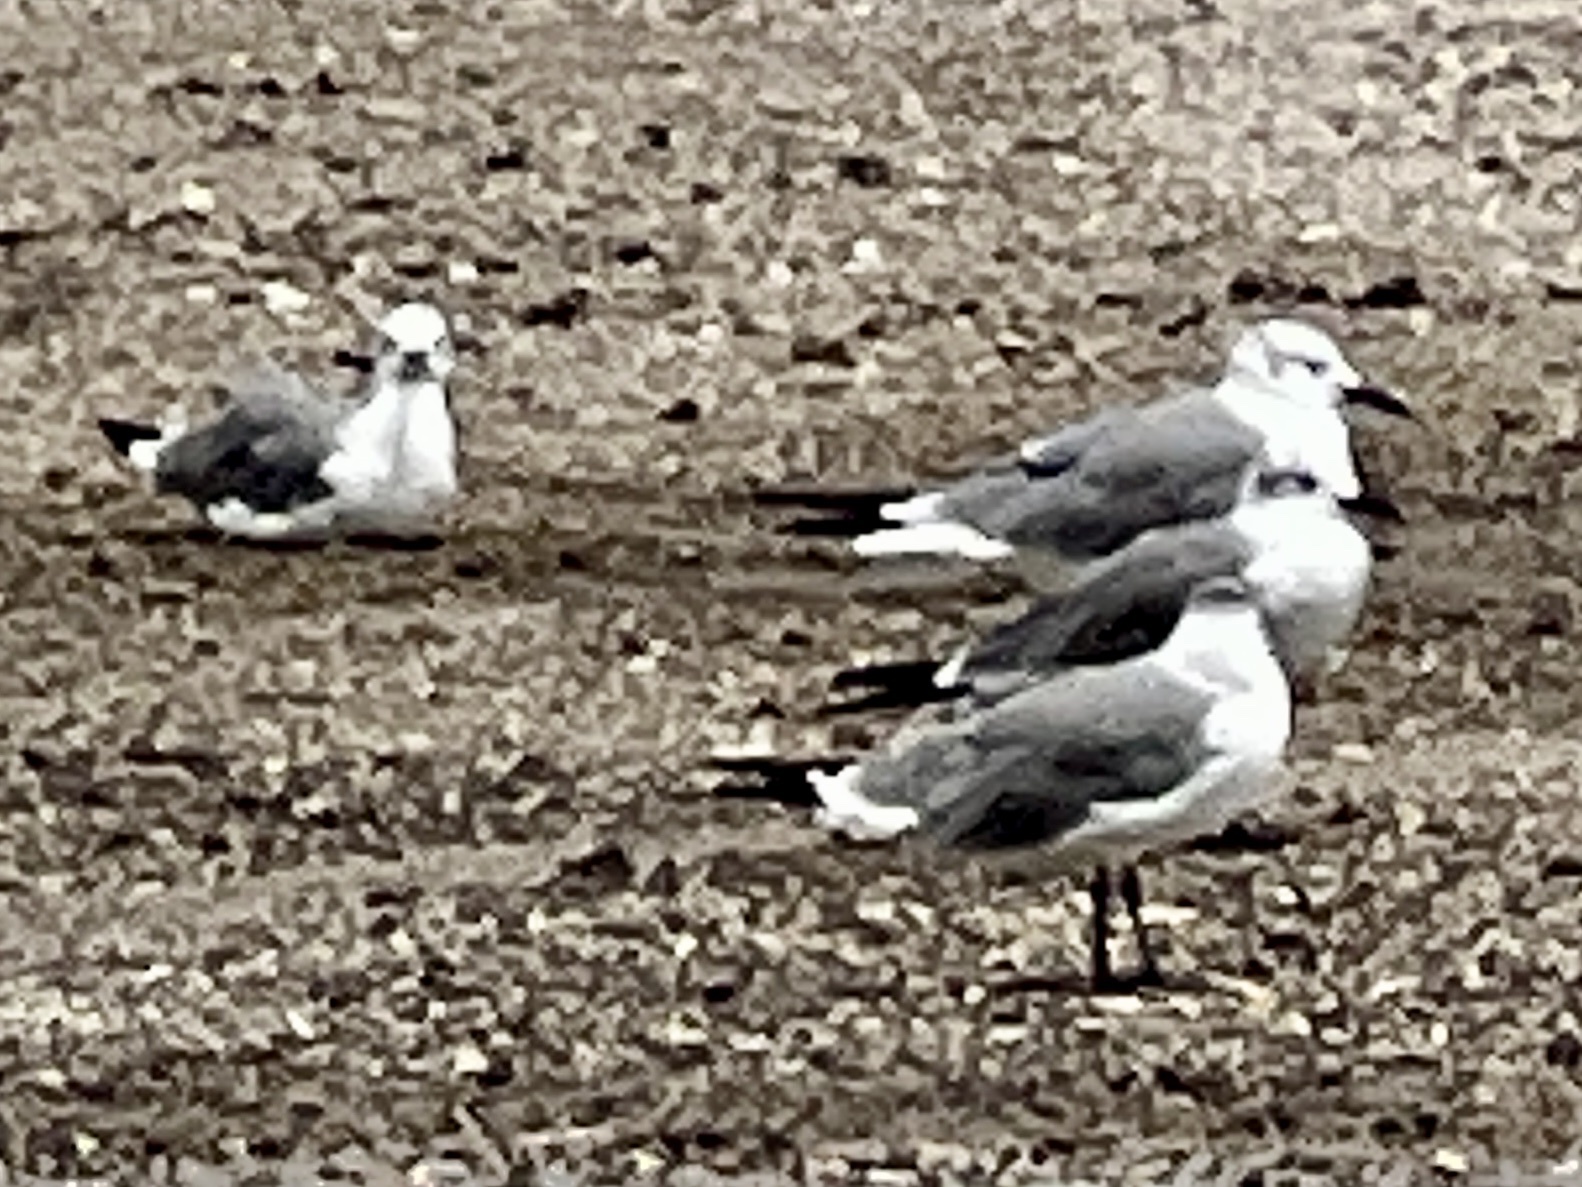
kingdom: Animalia
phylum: Chordata
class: Aves
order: Charadriiformes
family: Laridae
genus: Leucophaeus
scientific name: Leucophaeus atricilla
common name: Laughing gull
